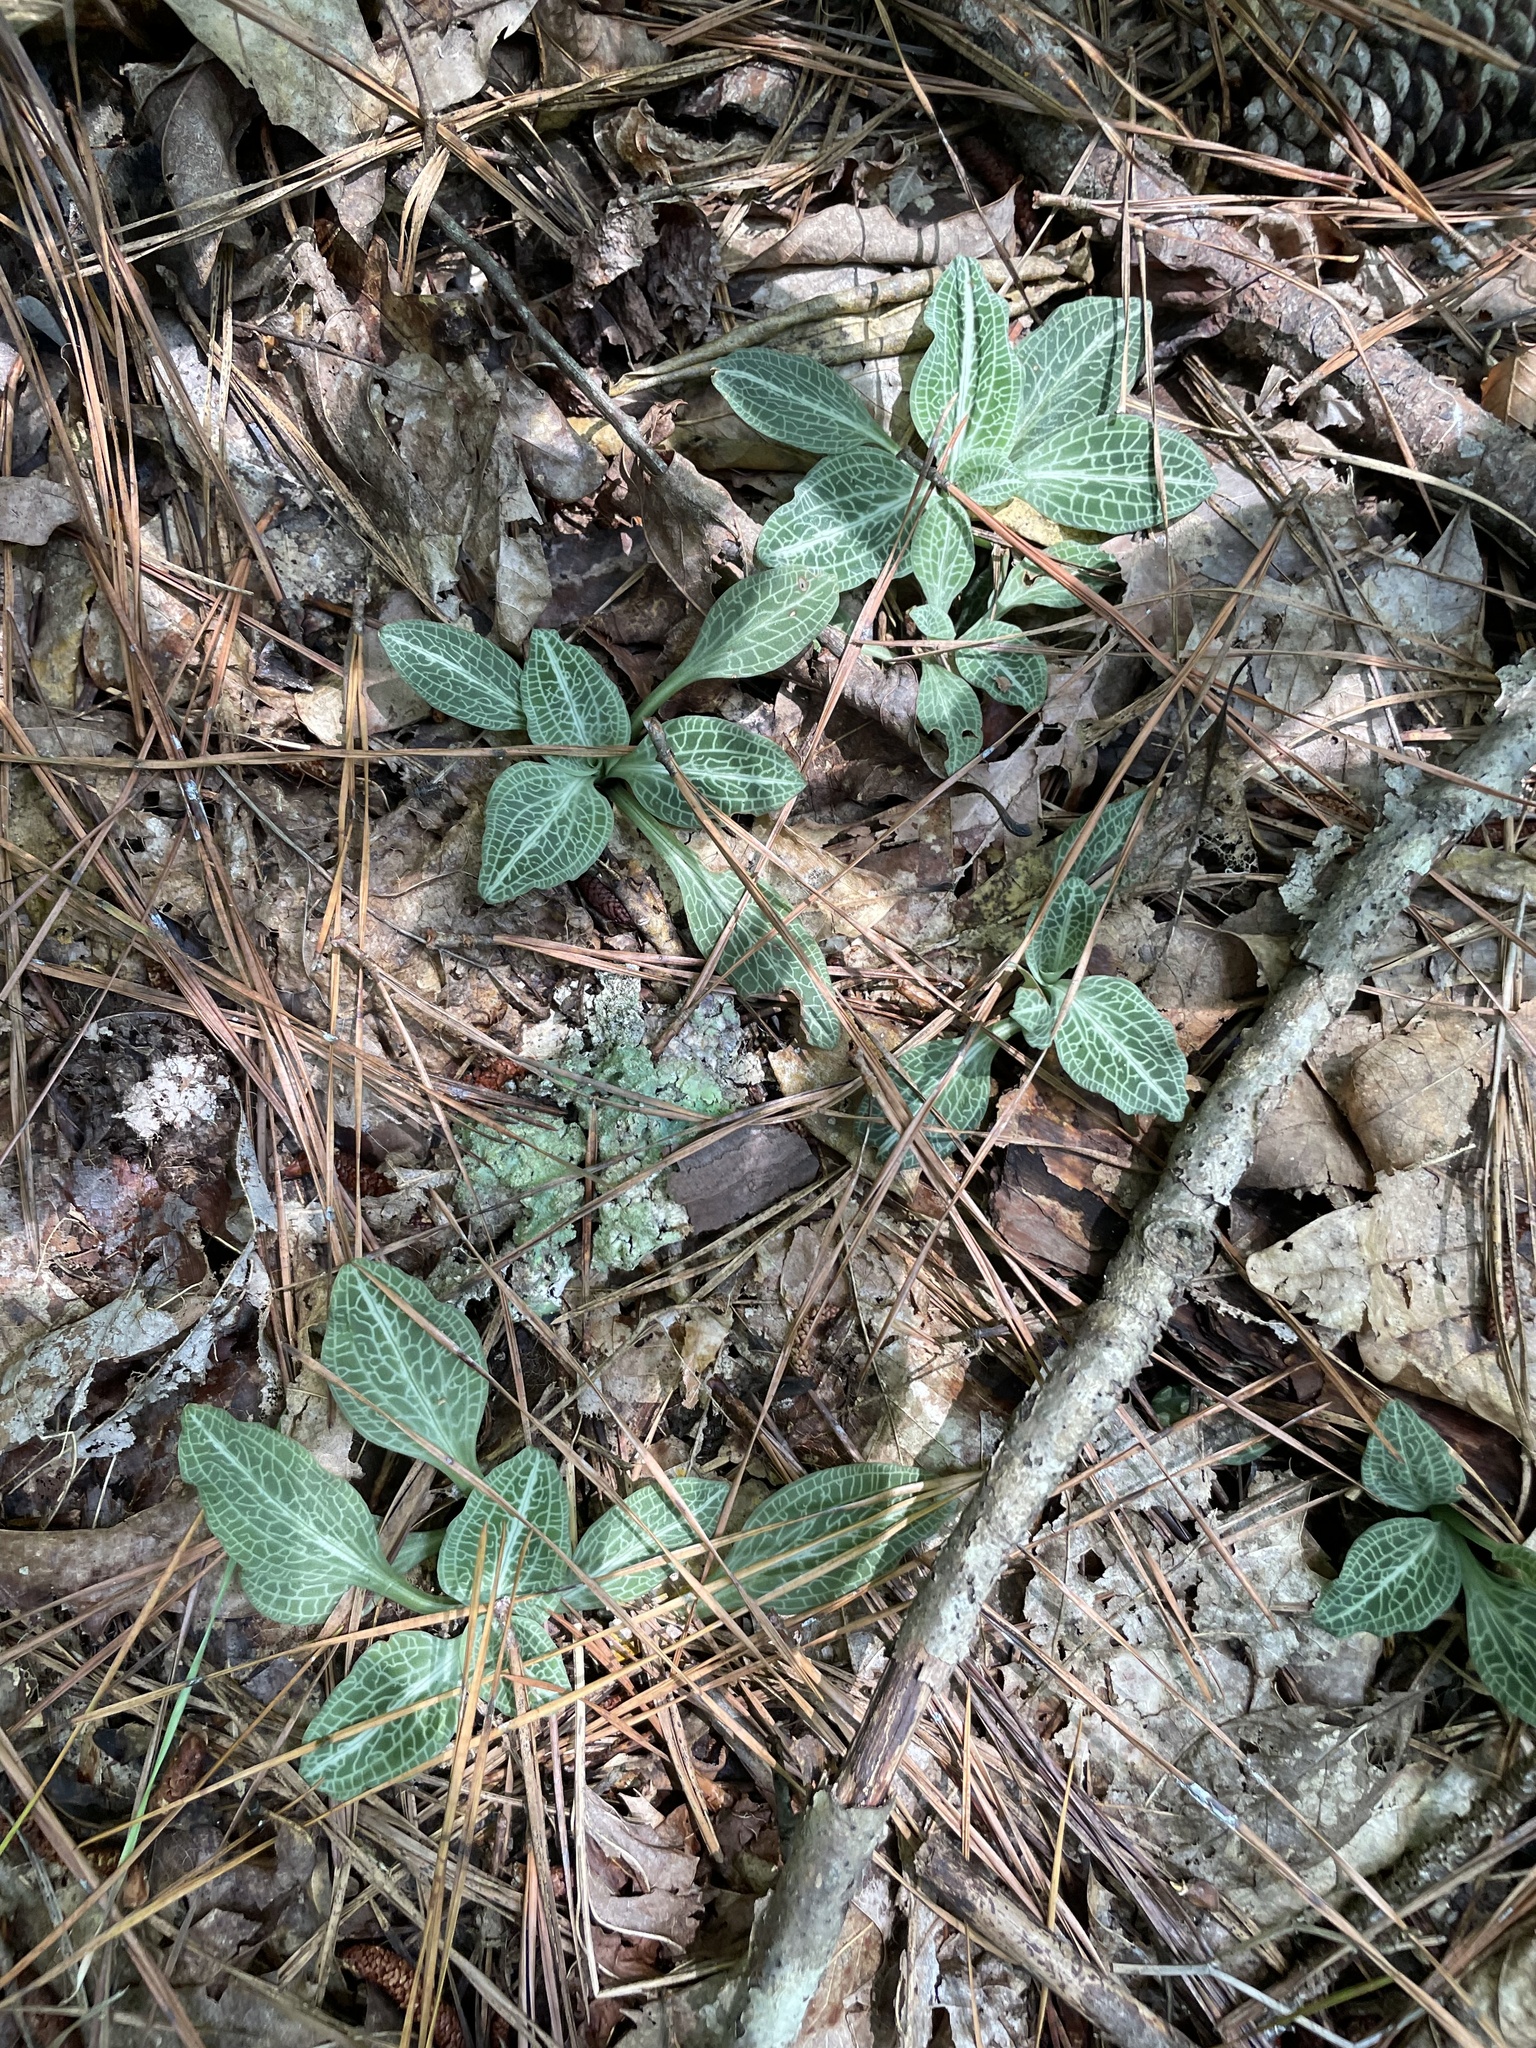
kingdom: Plantae
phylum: Tracheophyta
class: Liliopsida
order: Asparagales
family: Orchidaceae
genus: Goodyera
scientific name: Goodyera pubescens
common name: Downy rattlesnake-plantain
